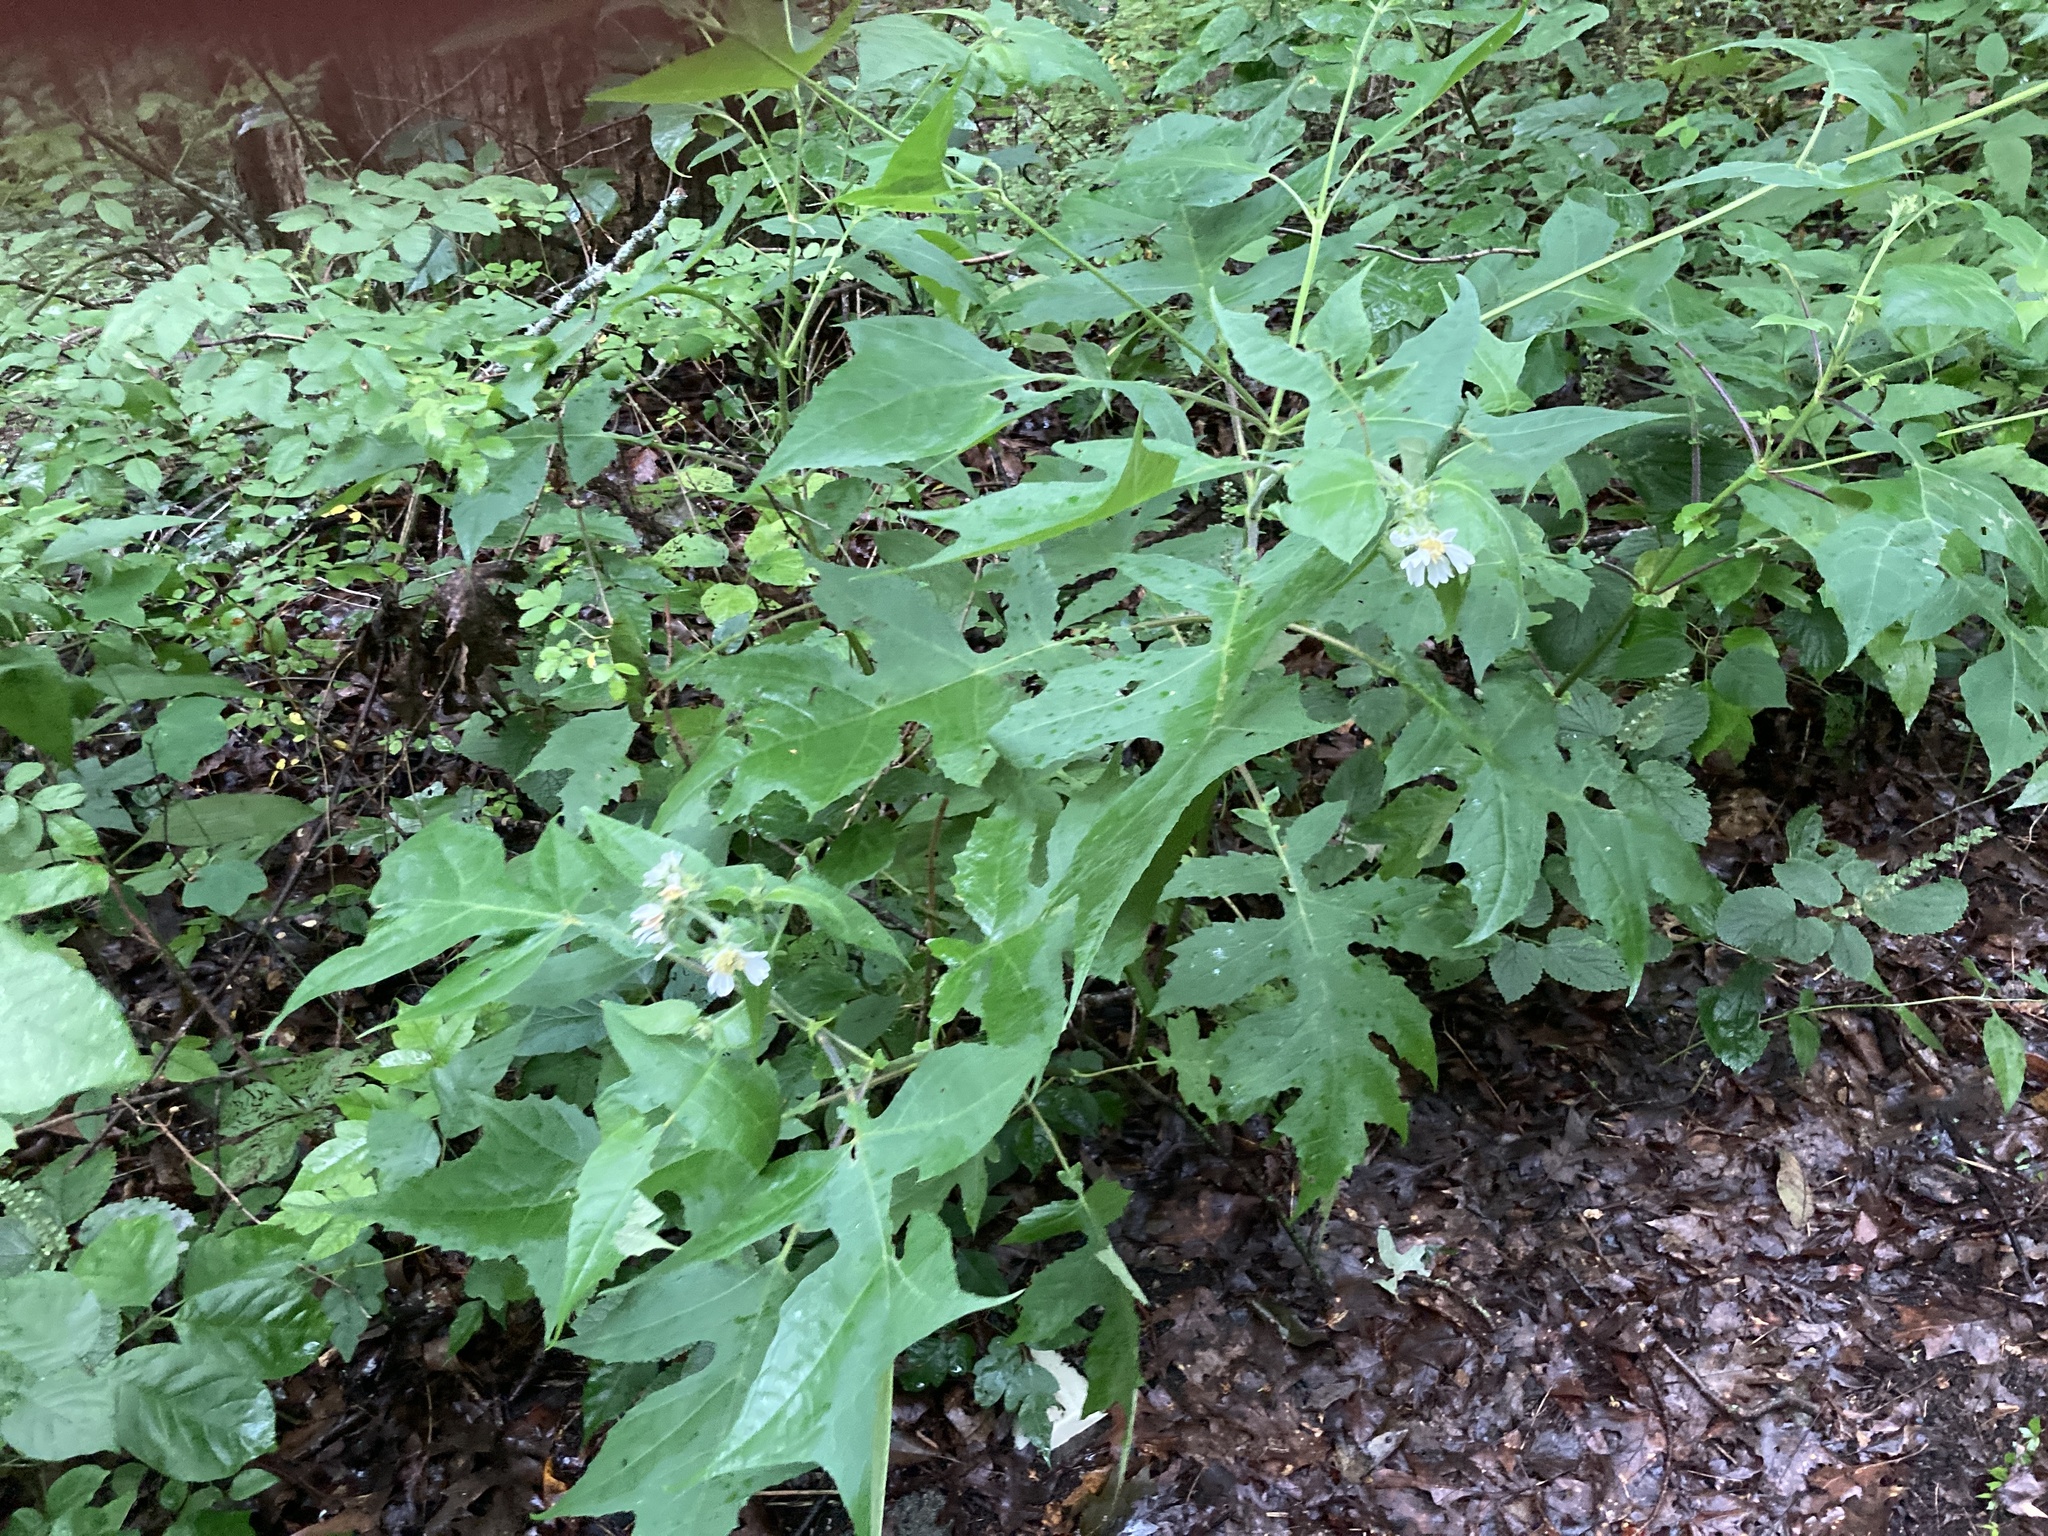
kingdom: Plantae
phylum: Tracheophyta
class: Magnoliopsida
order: Asterales
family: Asteraceae
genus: Polymnia
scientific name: Polymnia canadensis
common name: Pale-flowered leafcup
